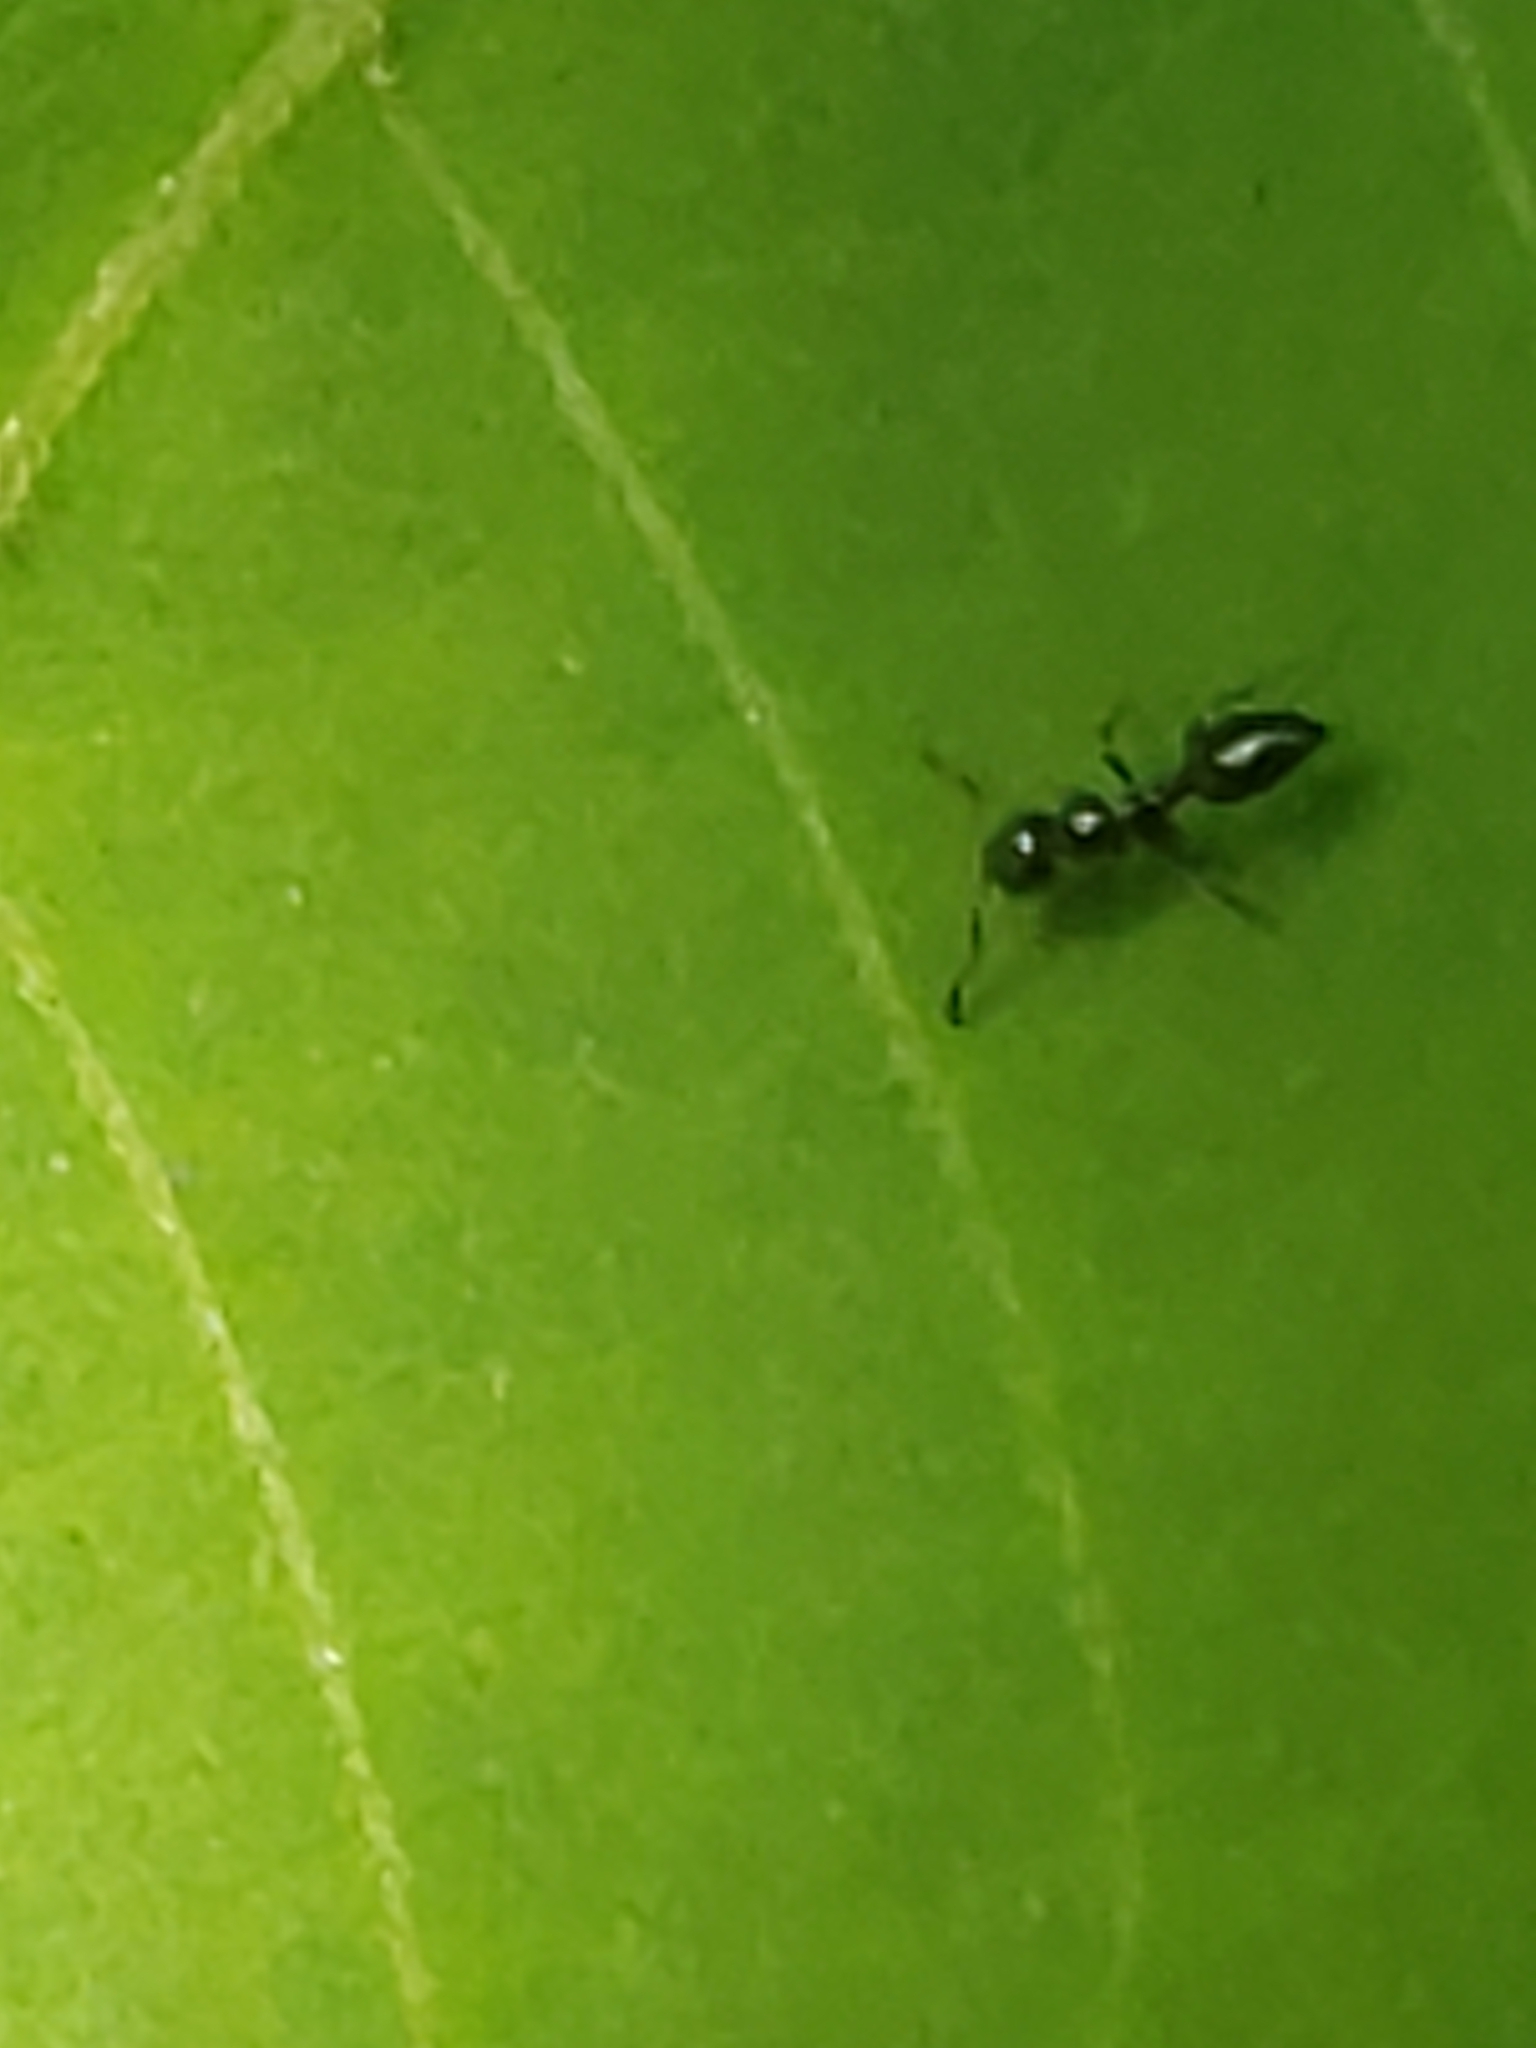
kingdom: Animalia
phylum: Arthropoda
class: Insecta
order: Hymenoptera
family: Formicidae
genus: Monomorium
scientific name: Monomorium minimum
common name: Little black ant
